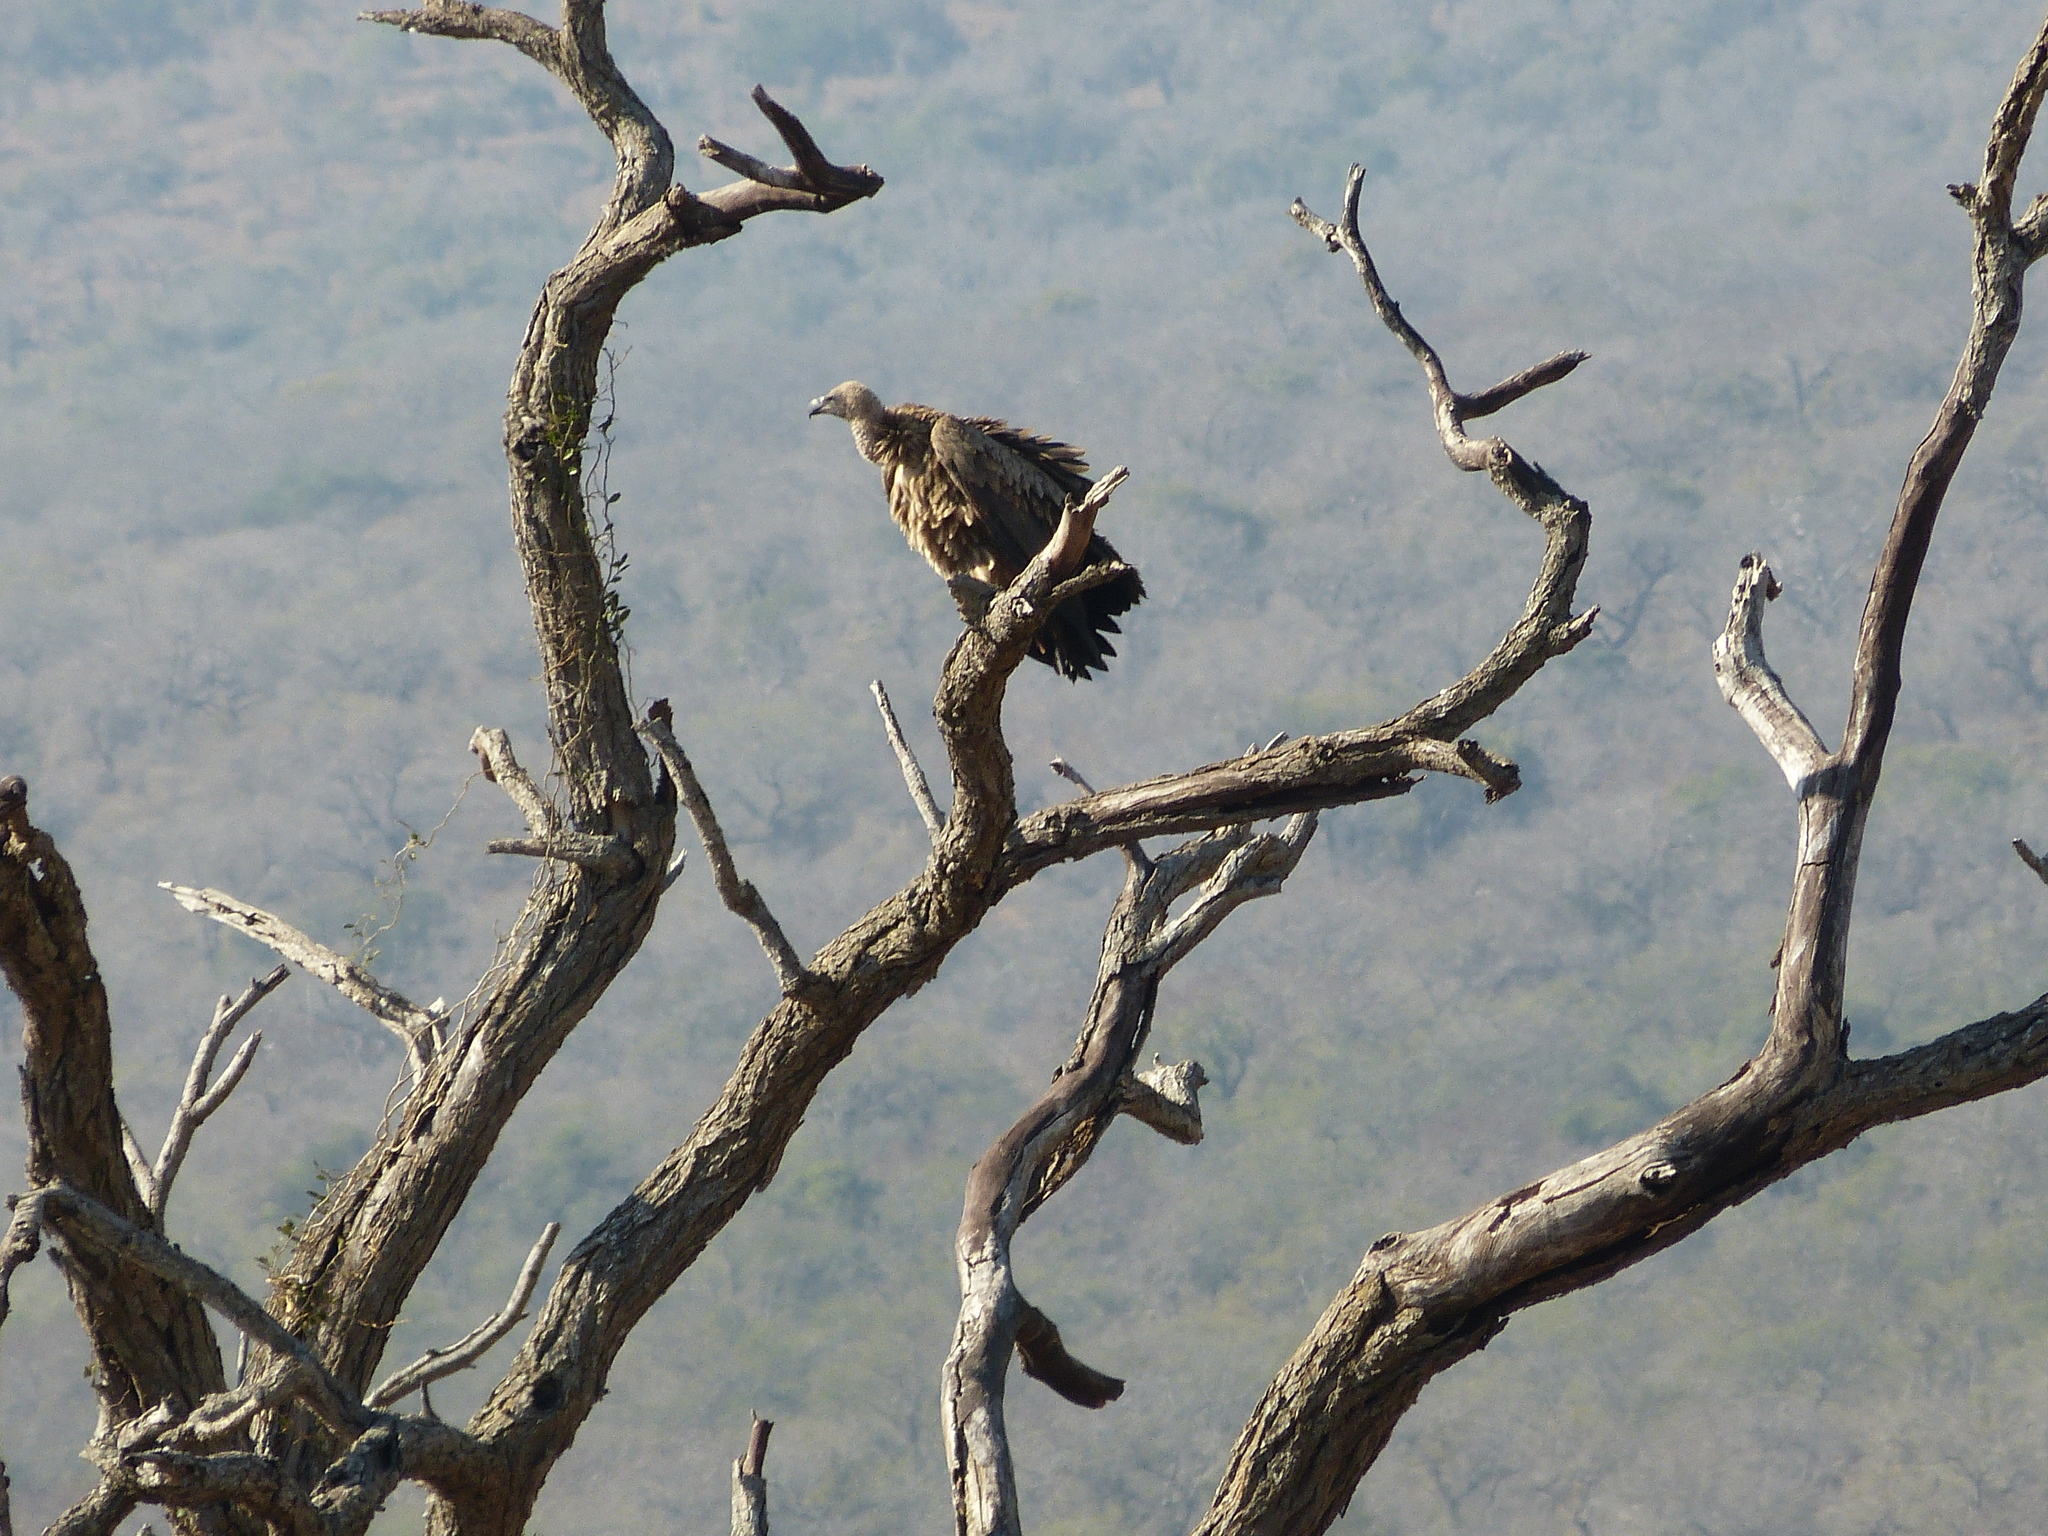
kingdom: Animalia
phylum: Chordata
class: Aves
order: Accipitriformes
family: Accipitridae
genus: Gyps
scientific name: Gyps africanus
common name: White-backed vulture
